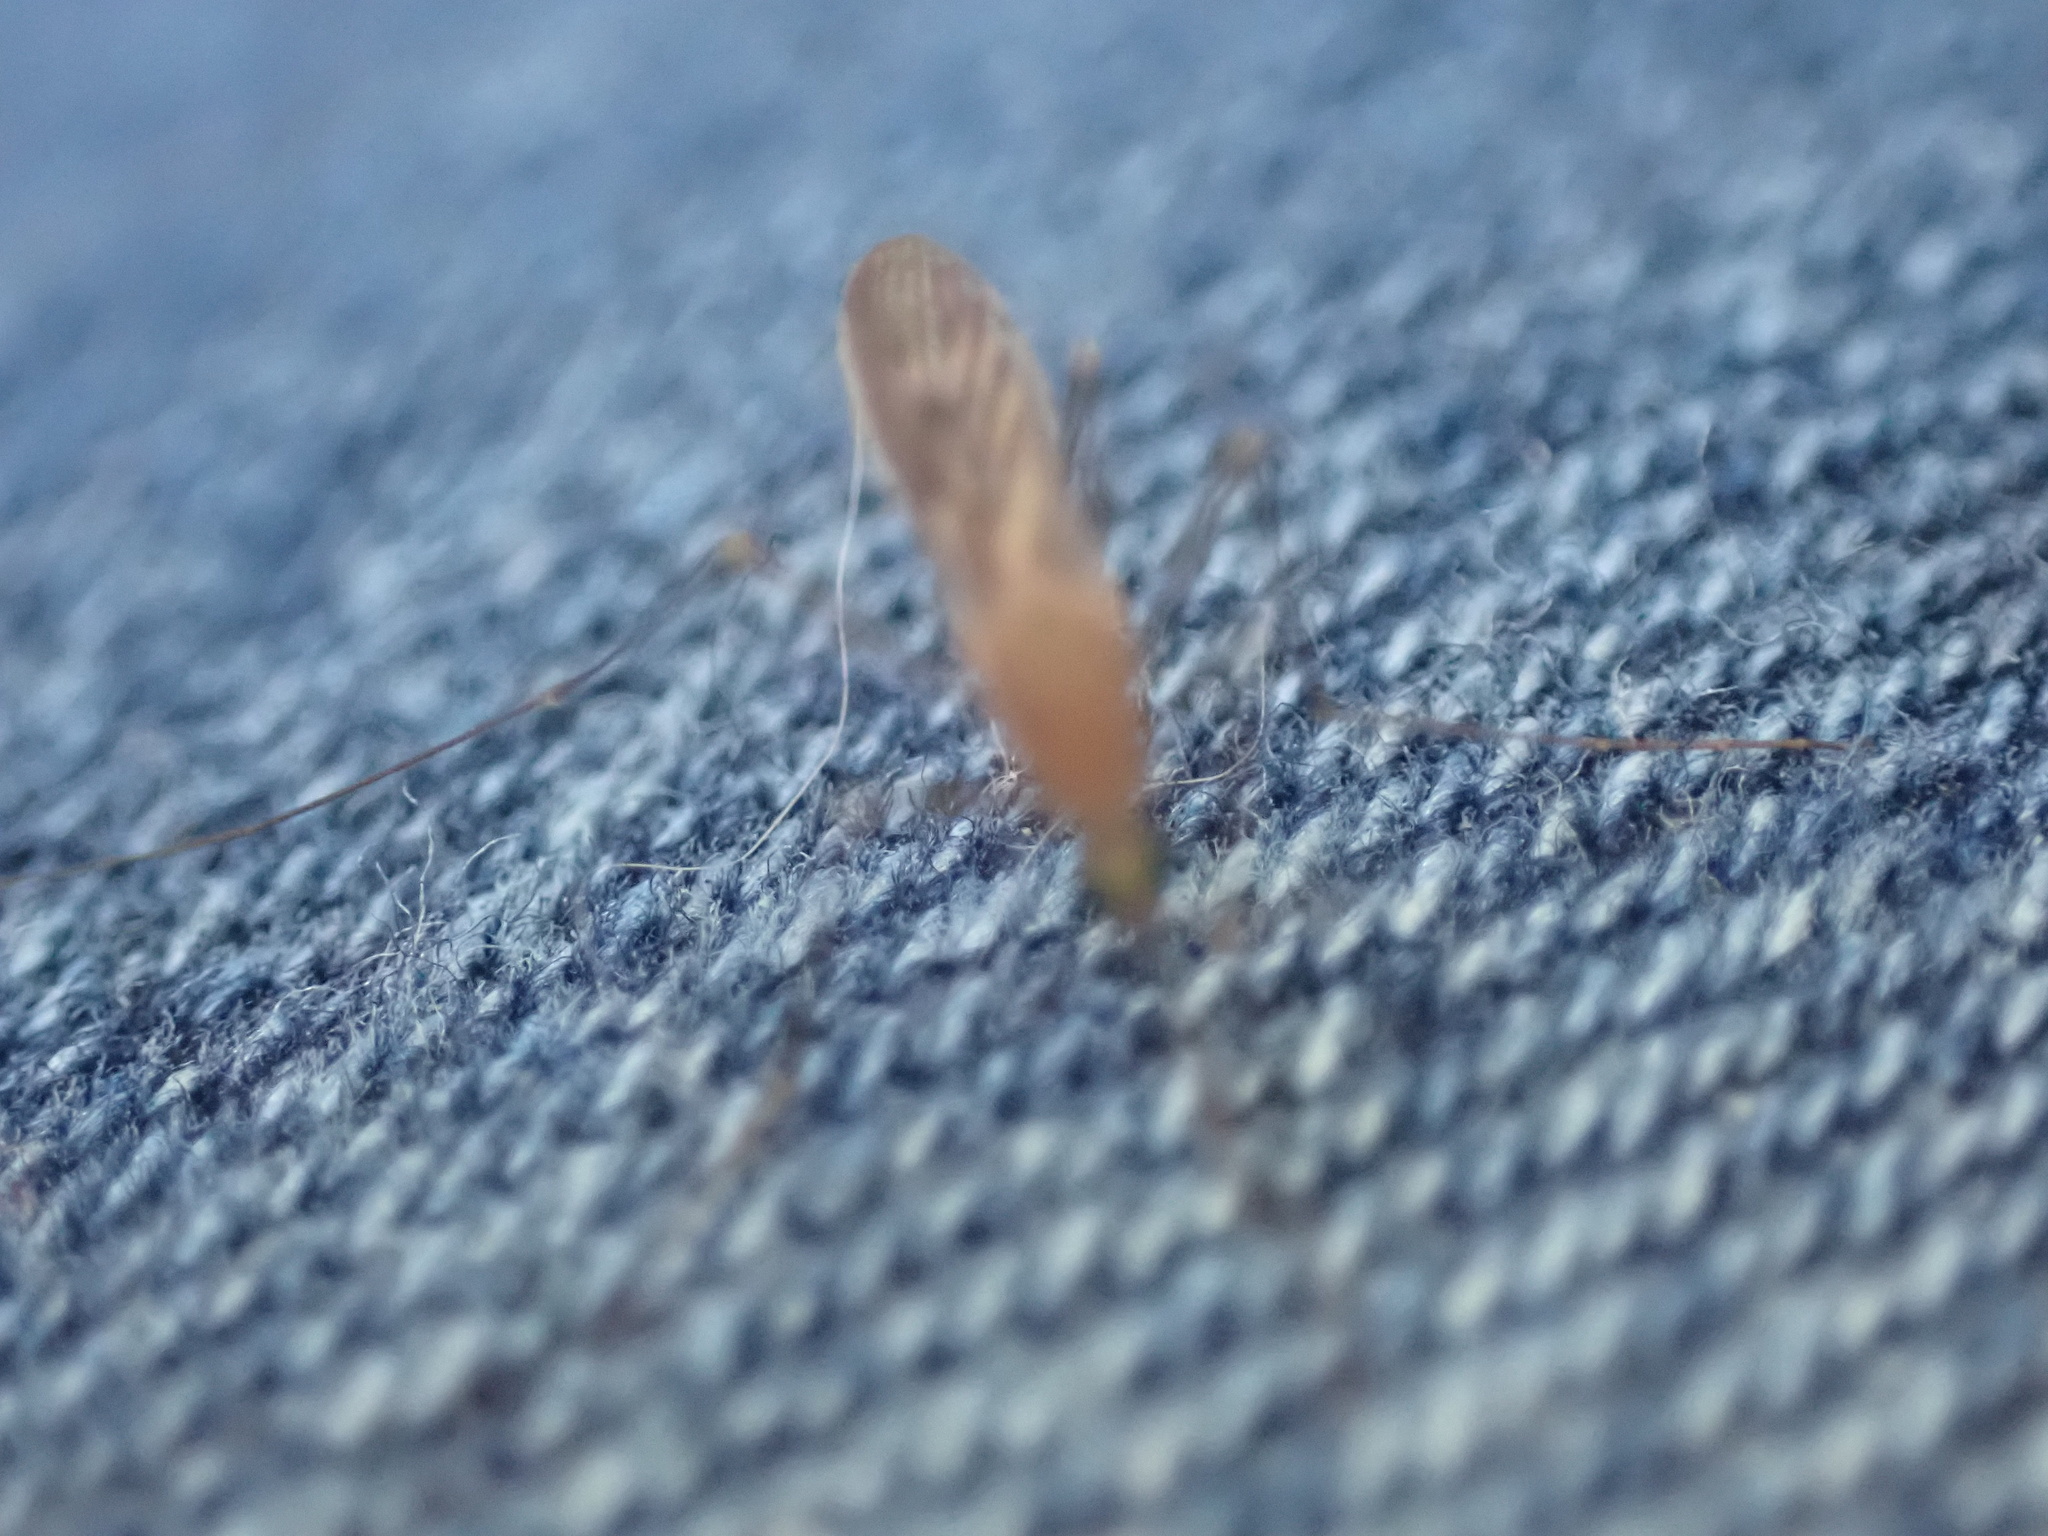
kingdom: Animalia
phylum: Arthropoda
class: Insecta
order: Diptera
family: Culicidae
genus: Anopheles
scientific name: Anopheles
